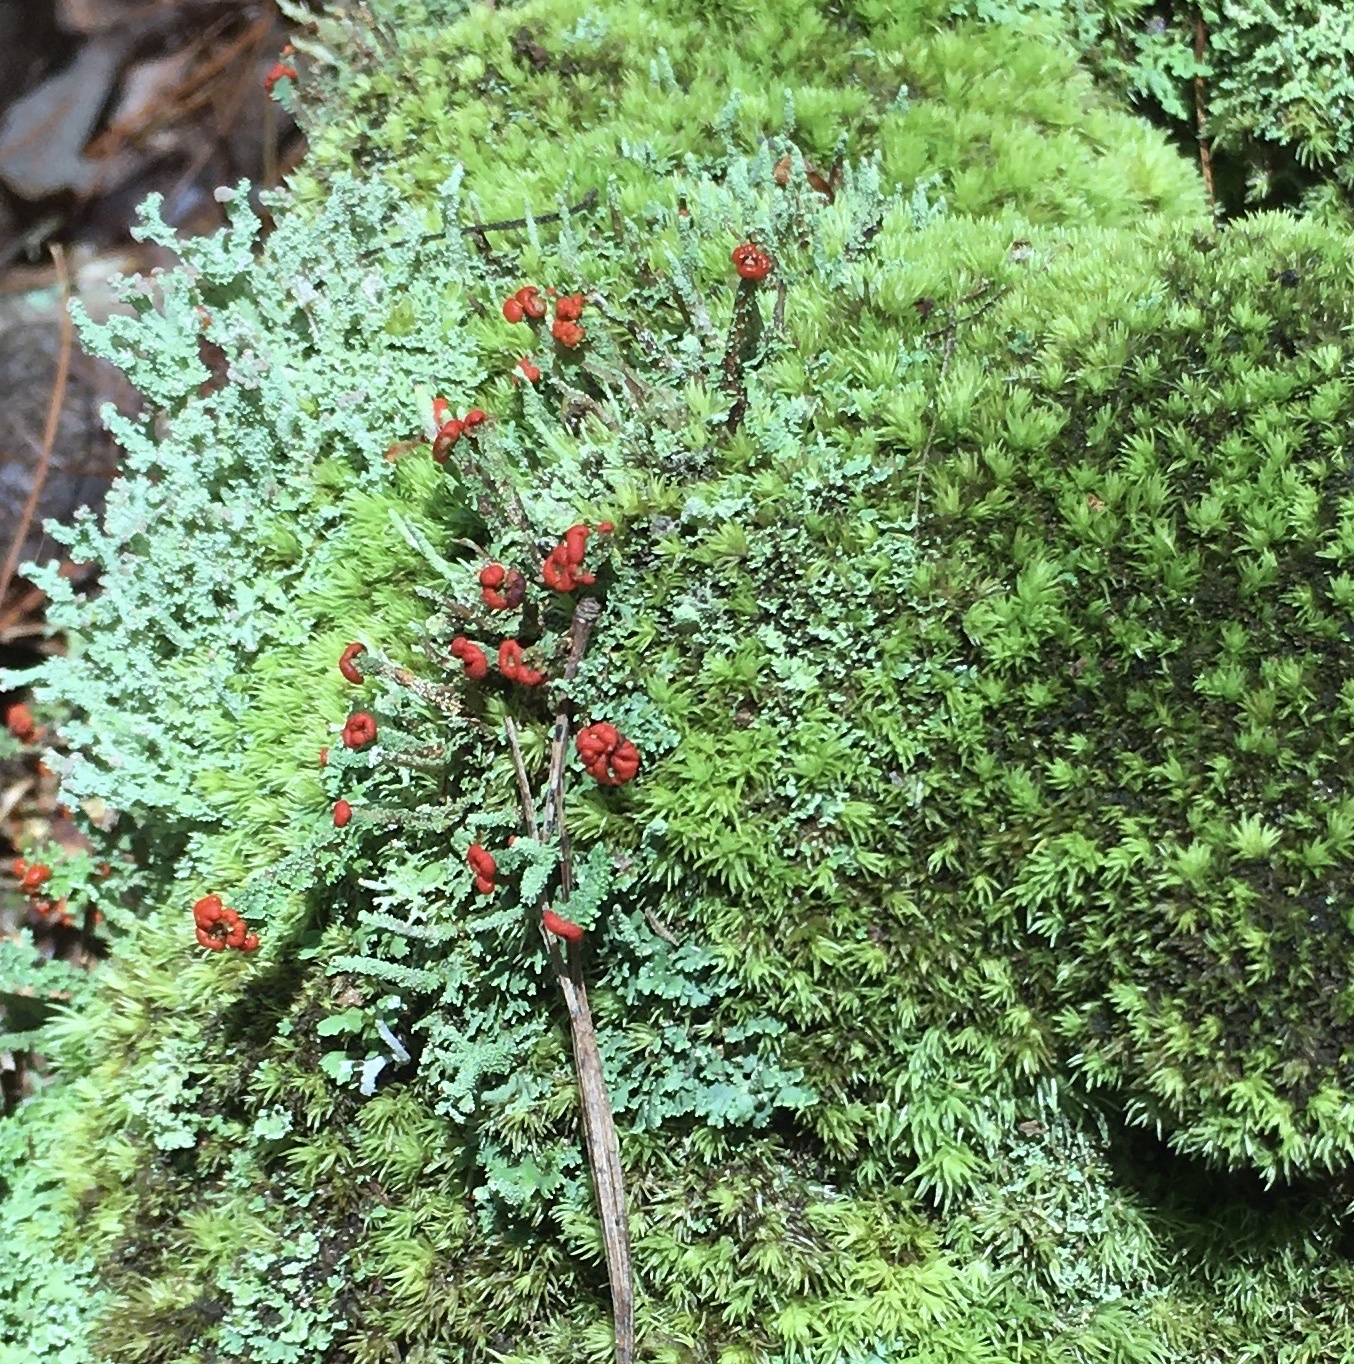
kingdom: Fungi
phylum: Ascomycota
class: Lecanoromycetes
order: Lecanorales
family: Cladoniaceae
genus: Cladonia
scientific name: Cladonia cristatella
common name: British soldier lichen
